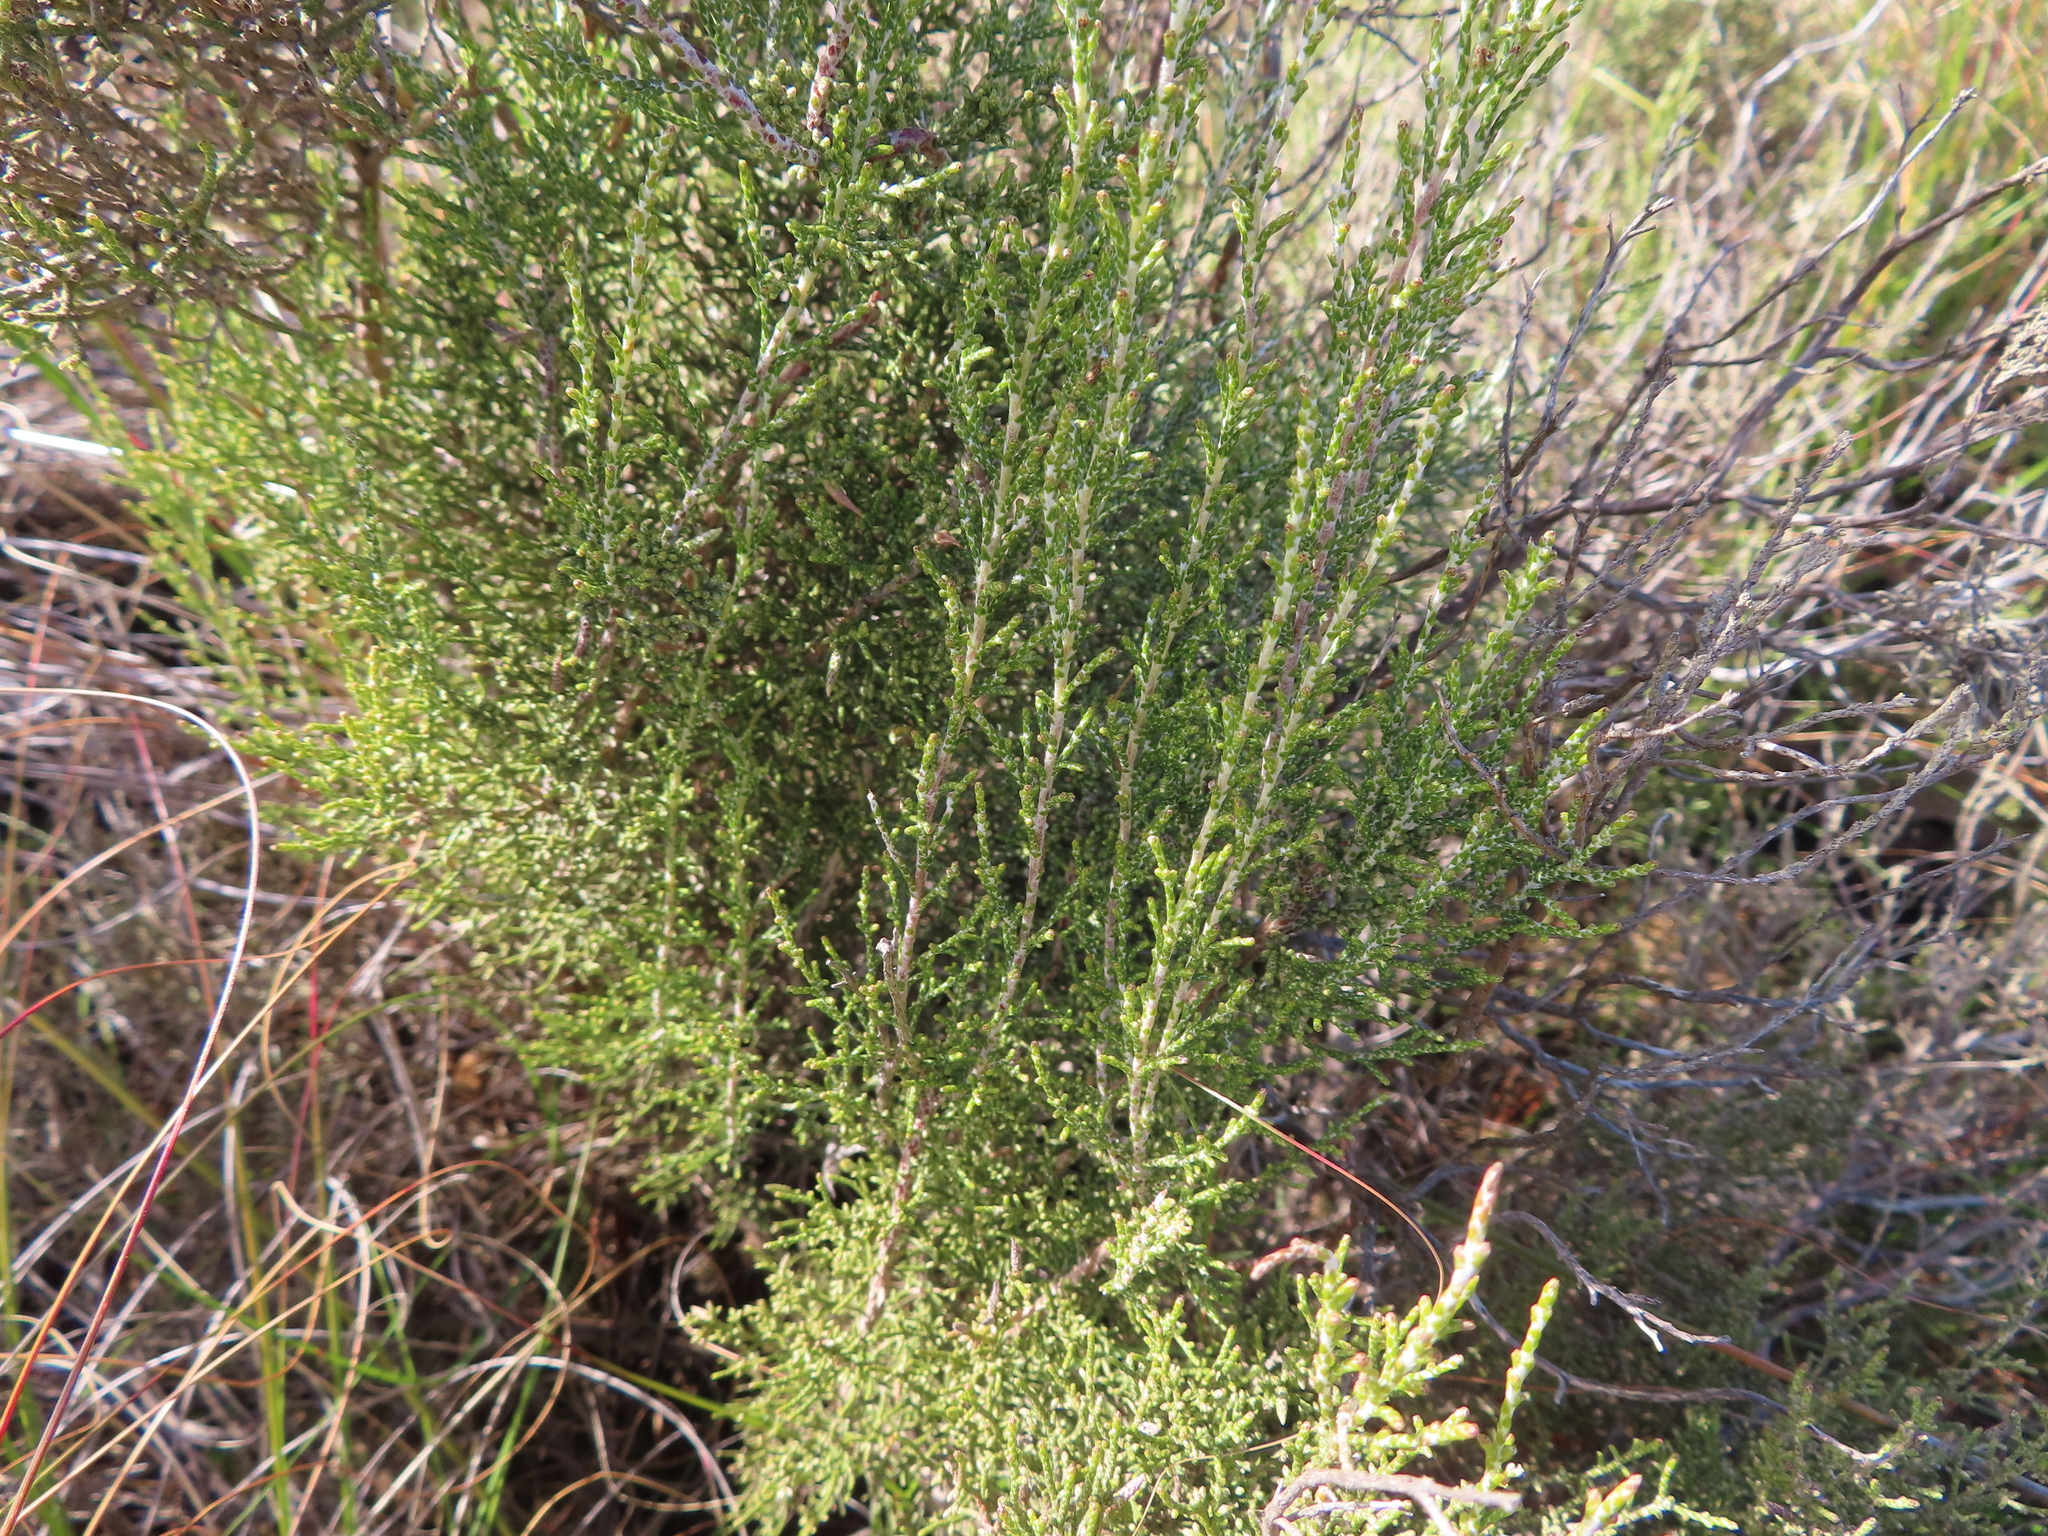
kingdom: Plantae
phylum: Tracheophyta
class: Magnoliopsida
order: Asterales
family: Asteraceae
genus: Dicerothamnus
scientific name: Dicerothamnus rhinocerotis
